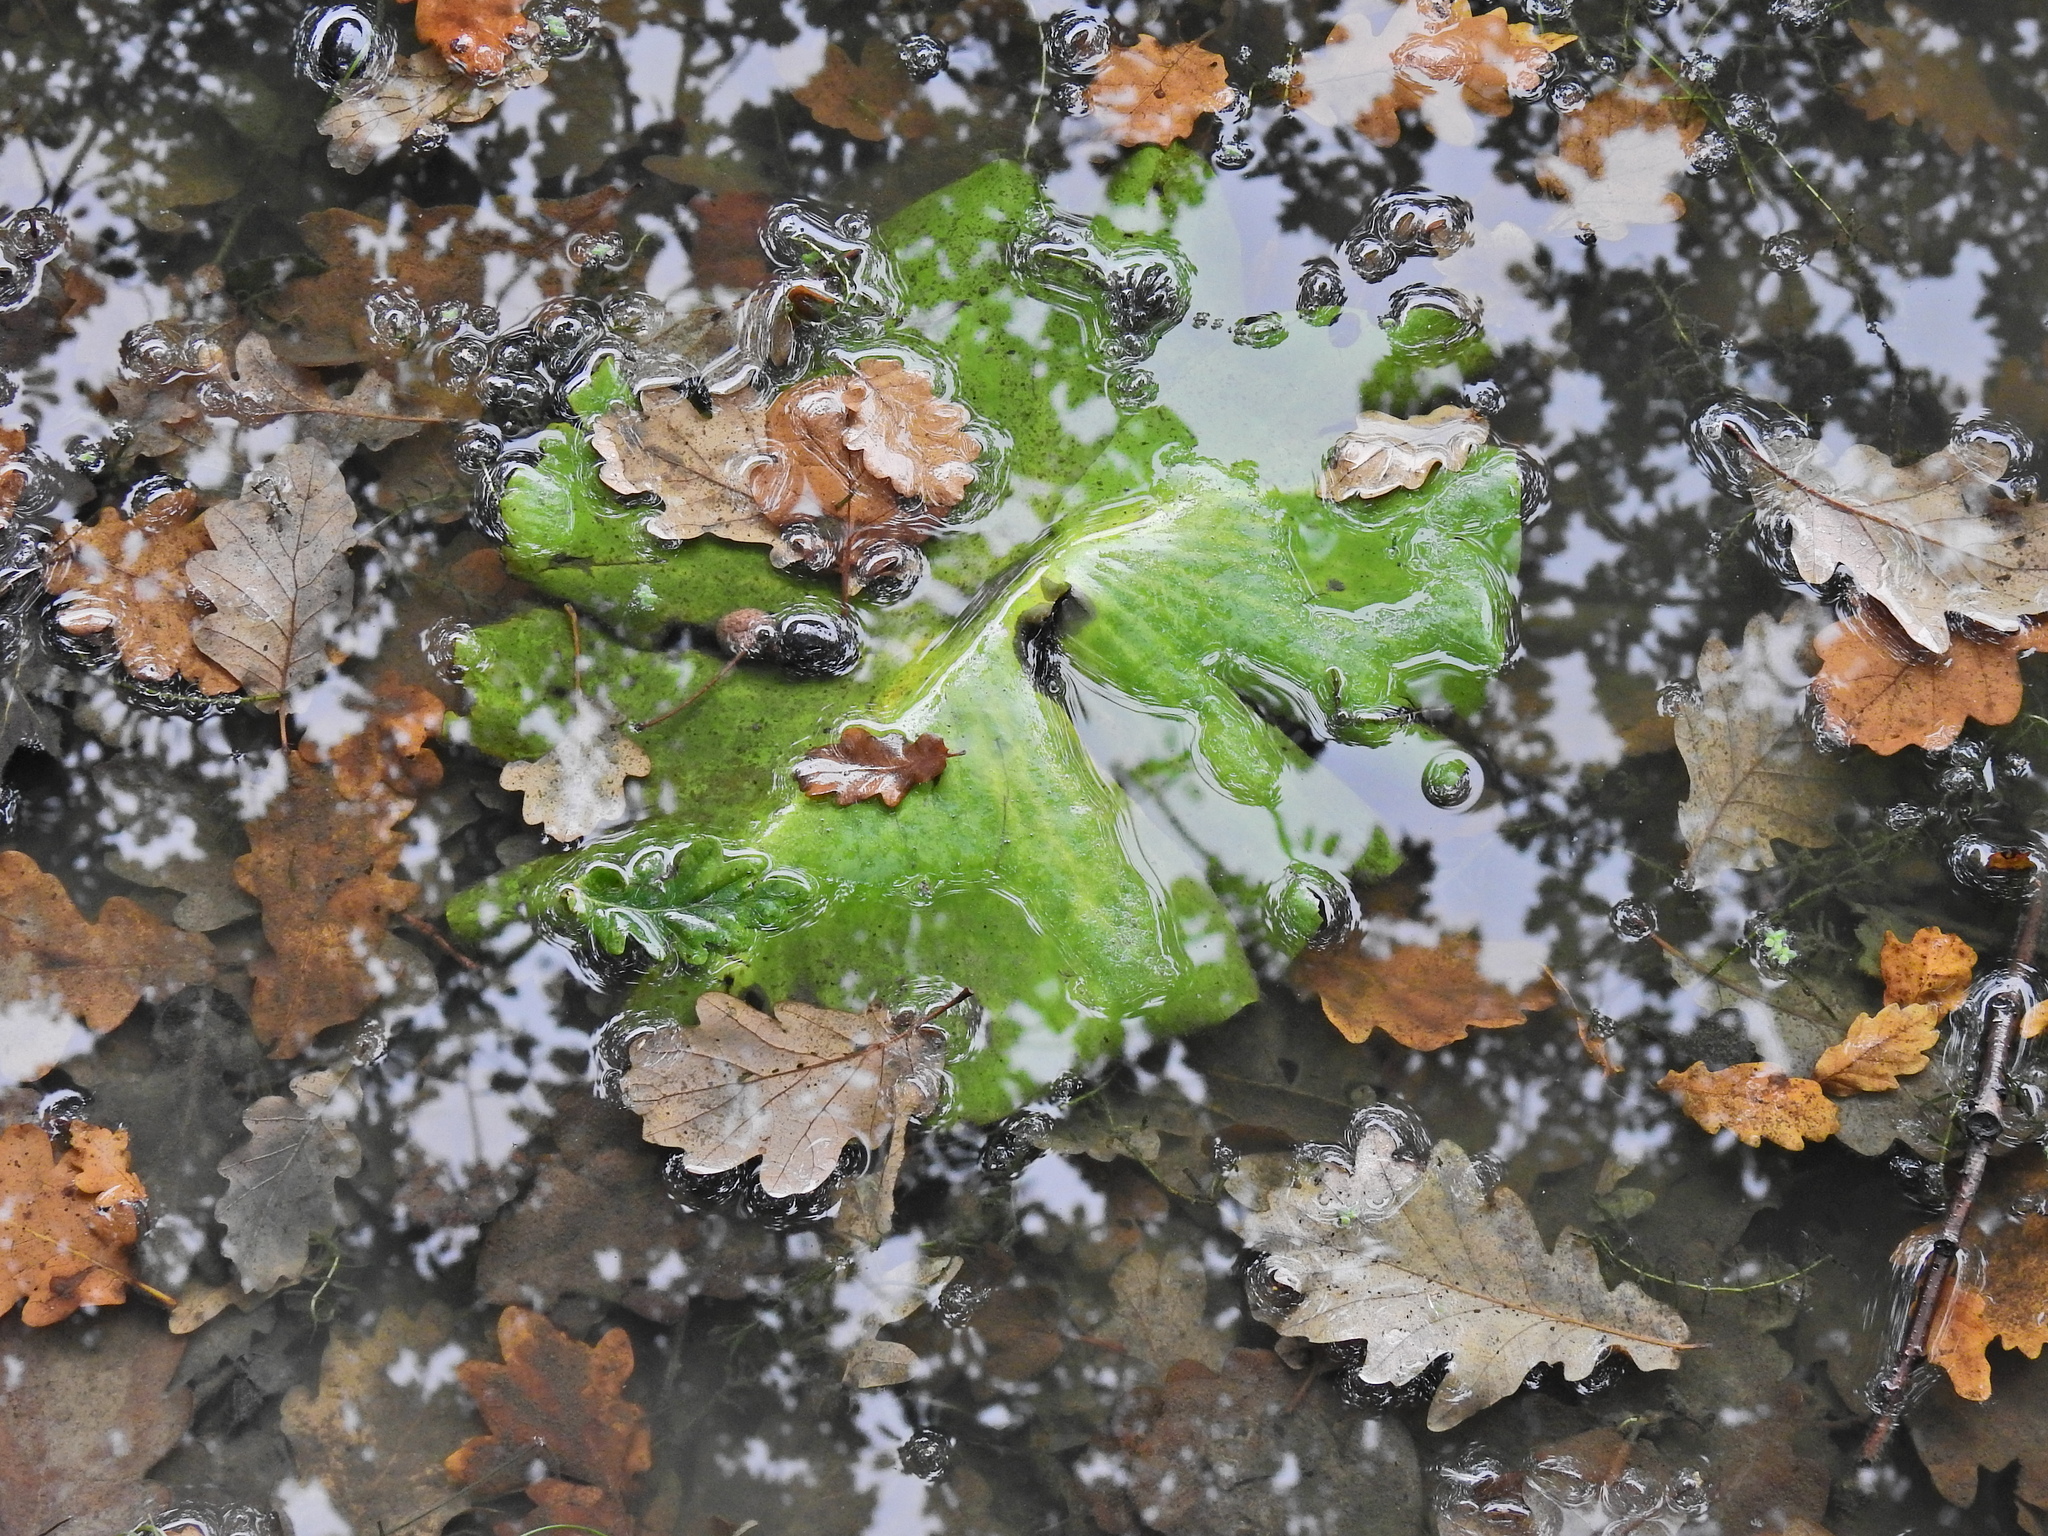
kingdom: Plantae
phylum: Tracheophyta
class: Magnoliopsida
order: Nymphaeales
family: Nymphaeaceae
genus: Nuphar
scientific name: Nuphar lutea
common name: Yellow water-lily
